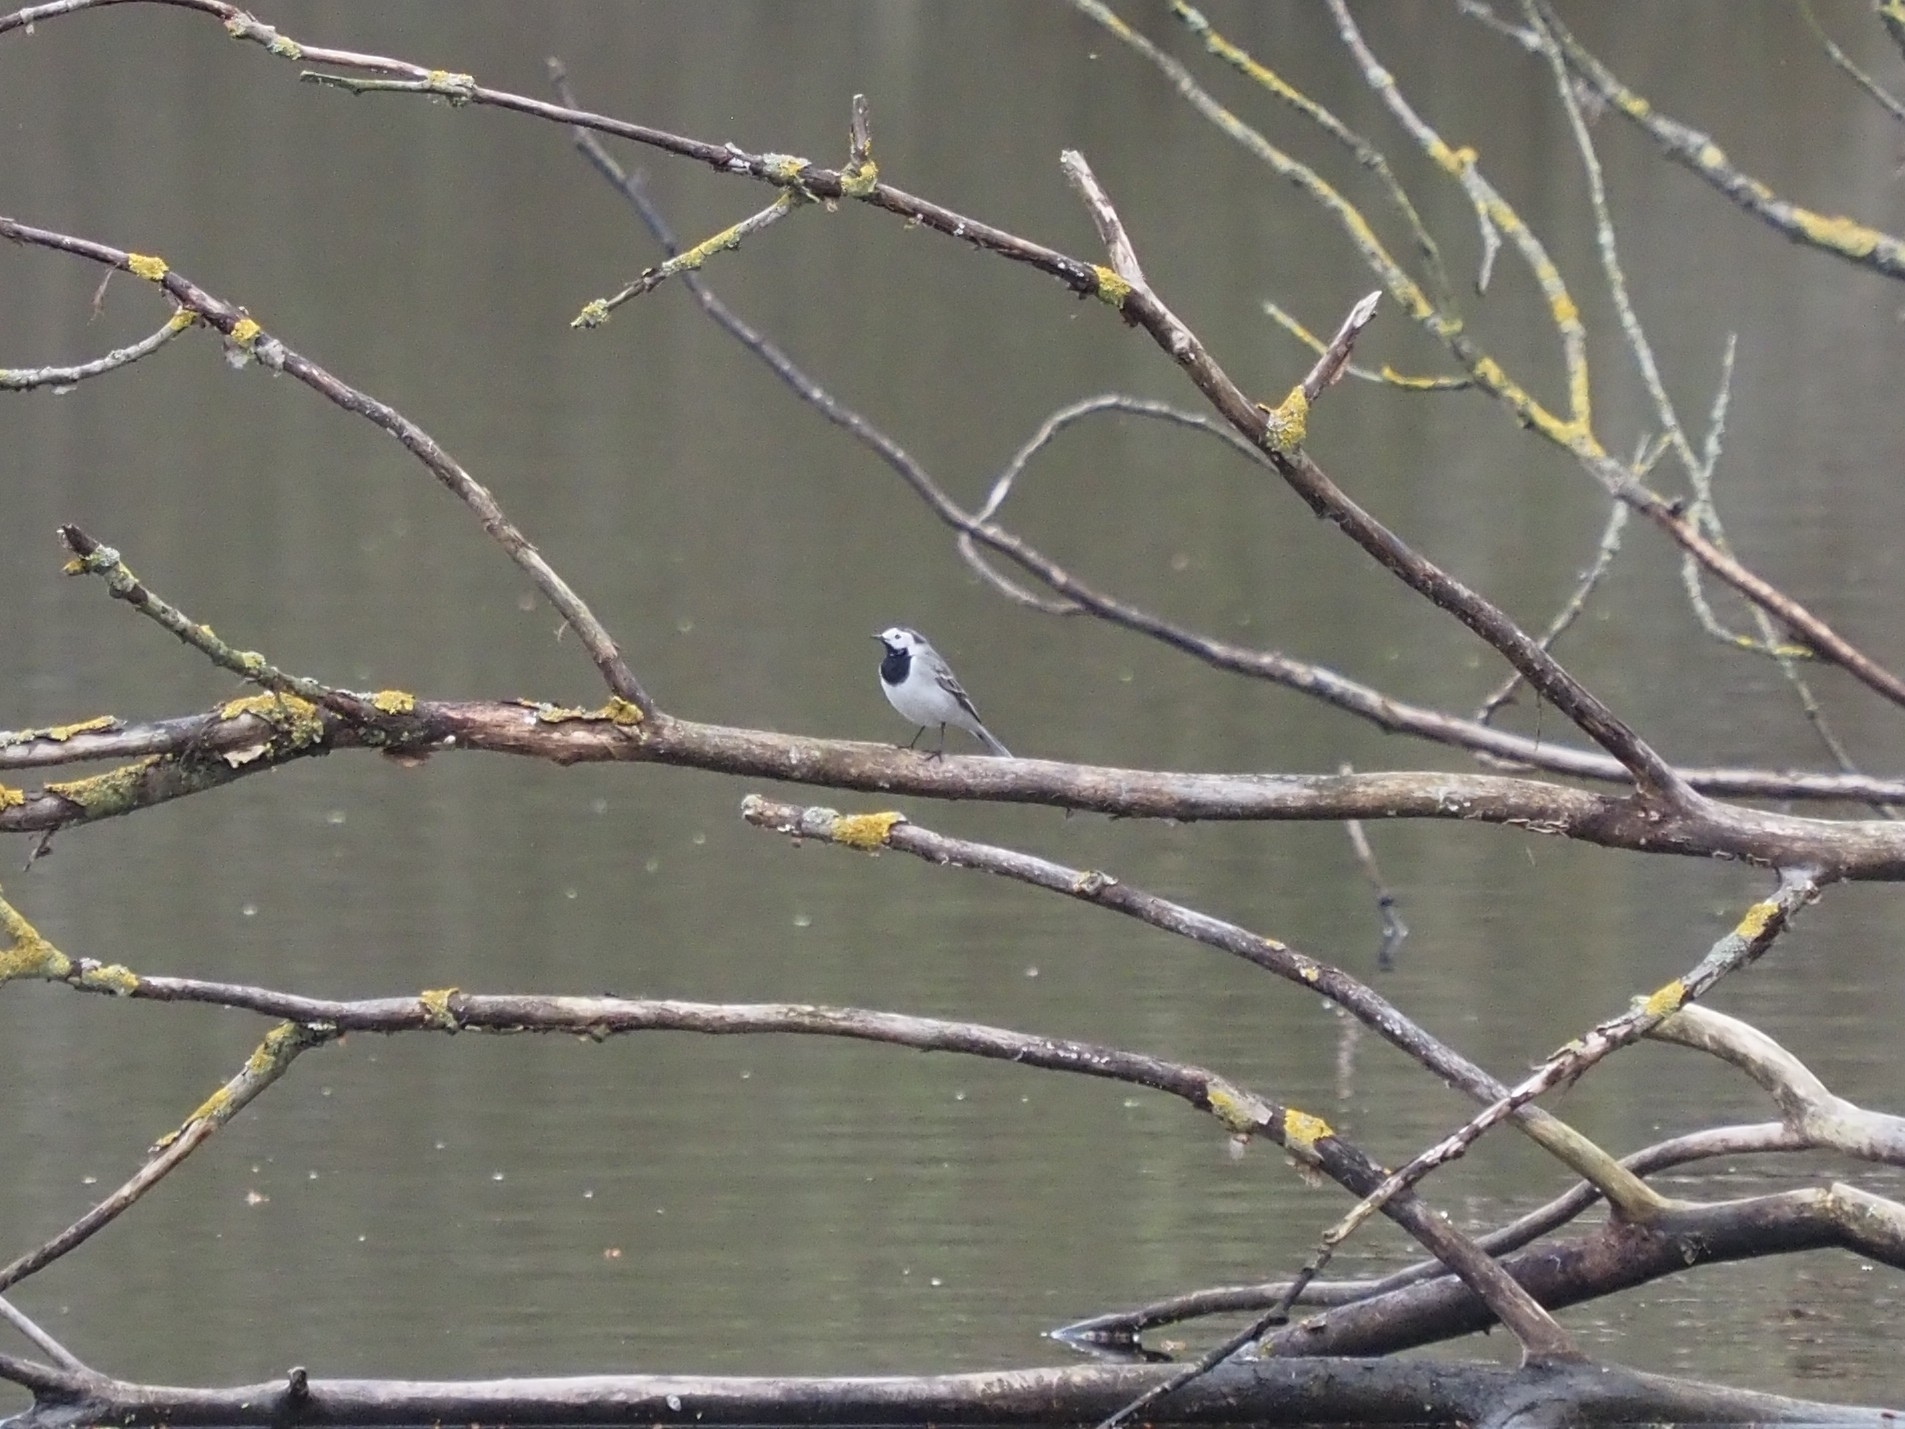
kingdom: Animalia
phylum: Chordata
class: Aves
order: Passeriformes
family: Motacillidae
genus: Motacilla
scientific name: Motacilla alba
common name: White wagtail
